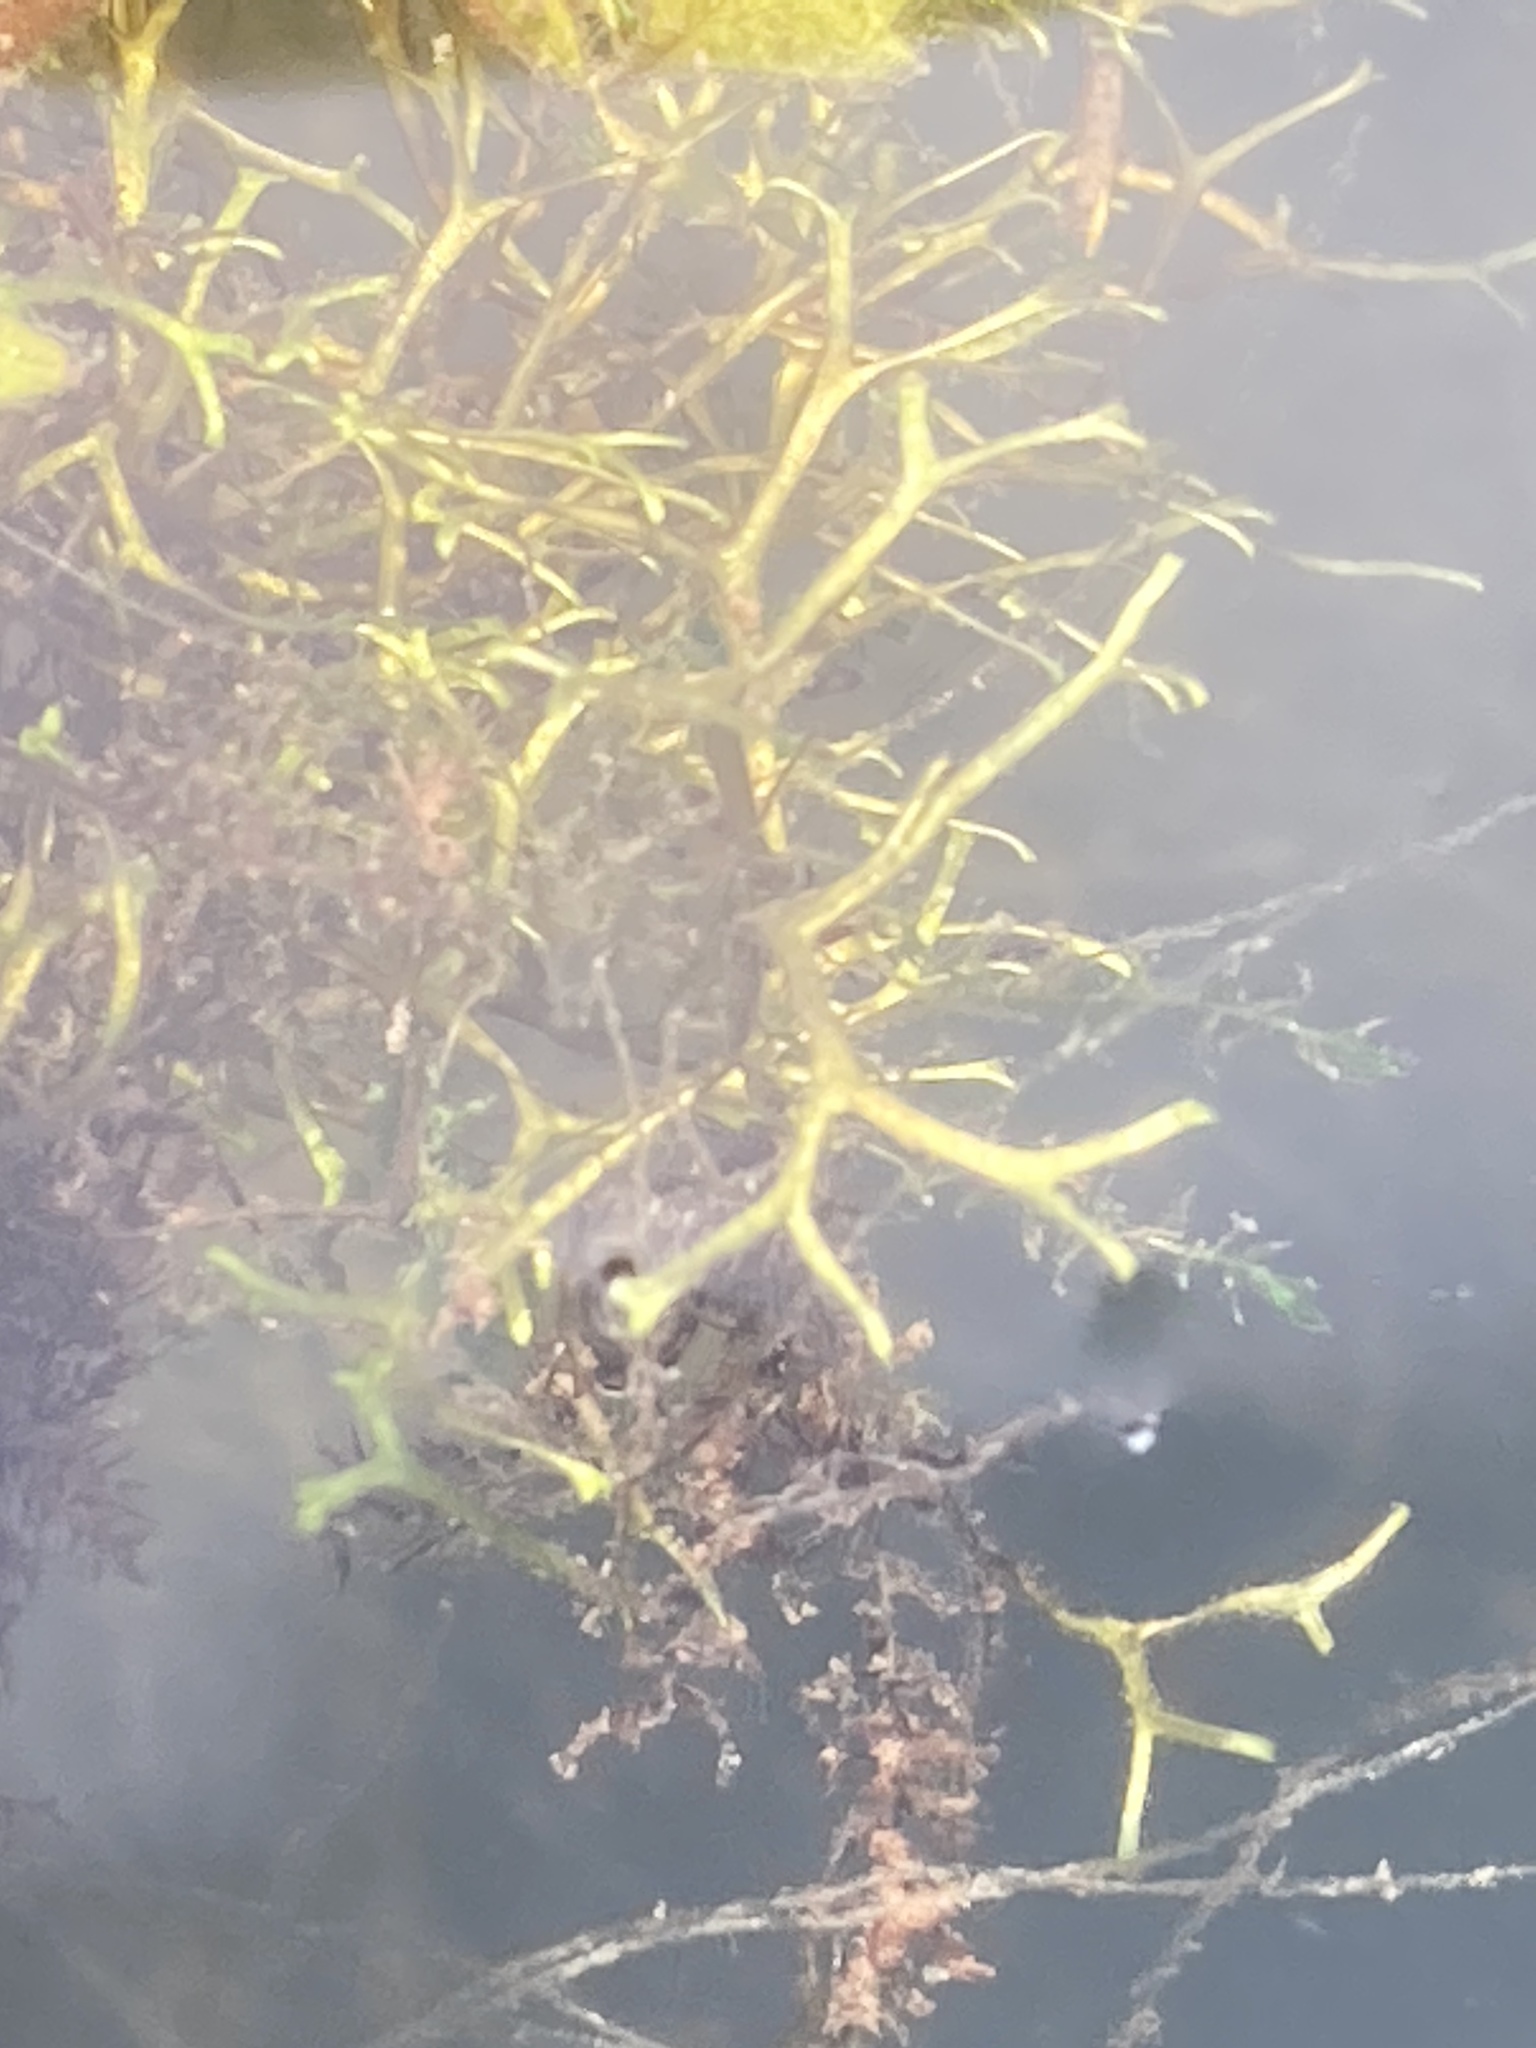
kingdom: Plantae
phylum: Marchantiophyta
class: Marchantiopsida
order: Marchantiales
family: Ricciaceae
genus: Riccia
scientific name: Riccia fluitans
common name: Floating crystalwort
